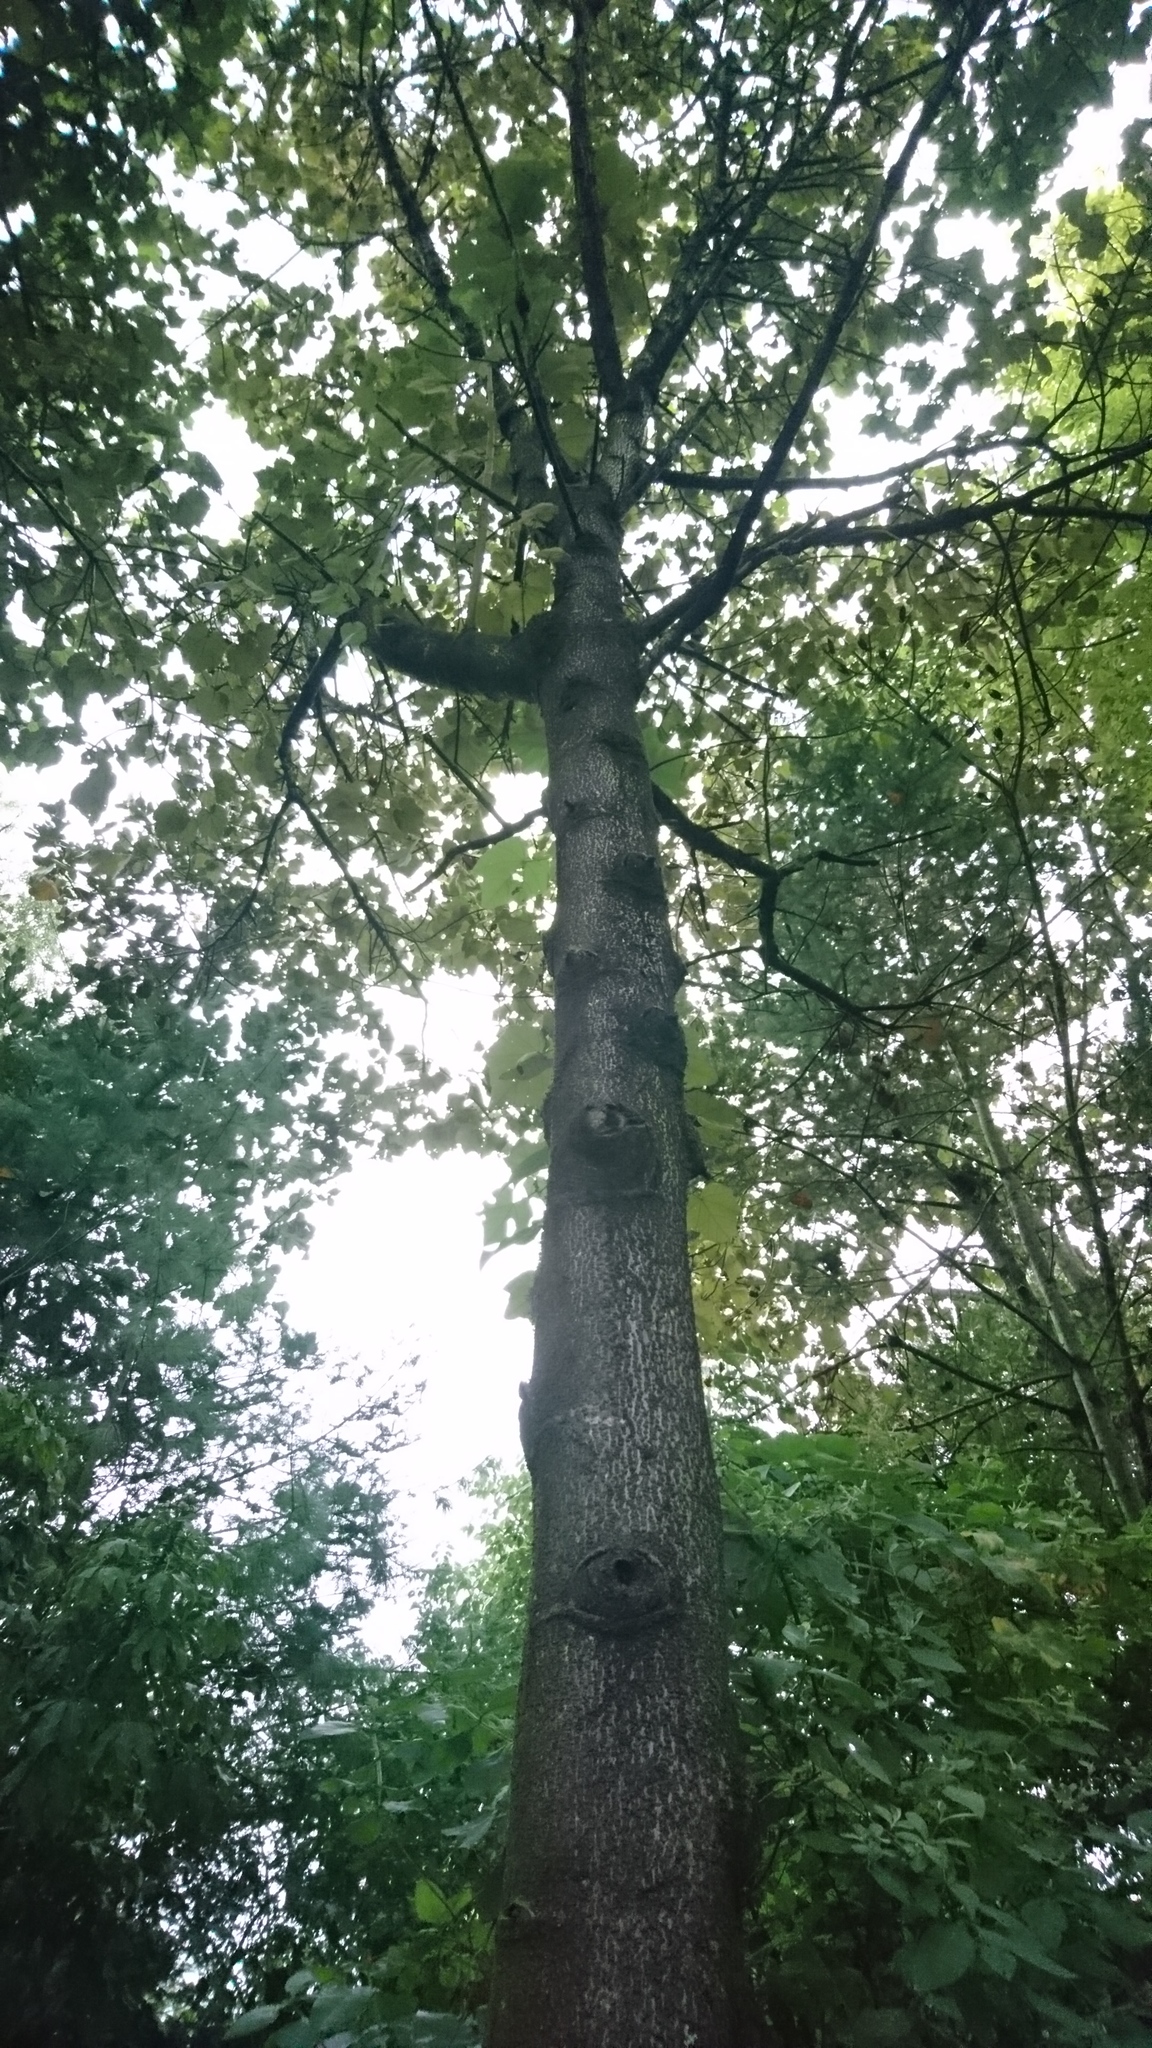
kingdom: Plantae
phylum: Tracheophyta
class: Magnoliopsida
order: Malvales
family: Malvaceae
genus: Chiranthodendron
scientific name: Chiranthodendron pentadactylon
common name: Mexican-hat-plant
